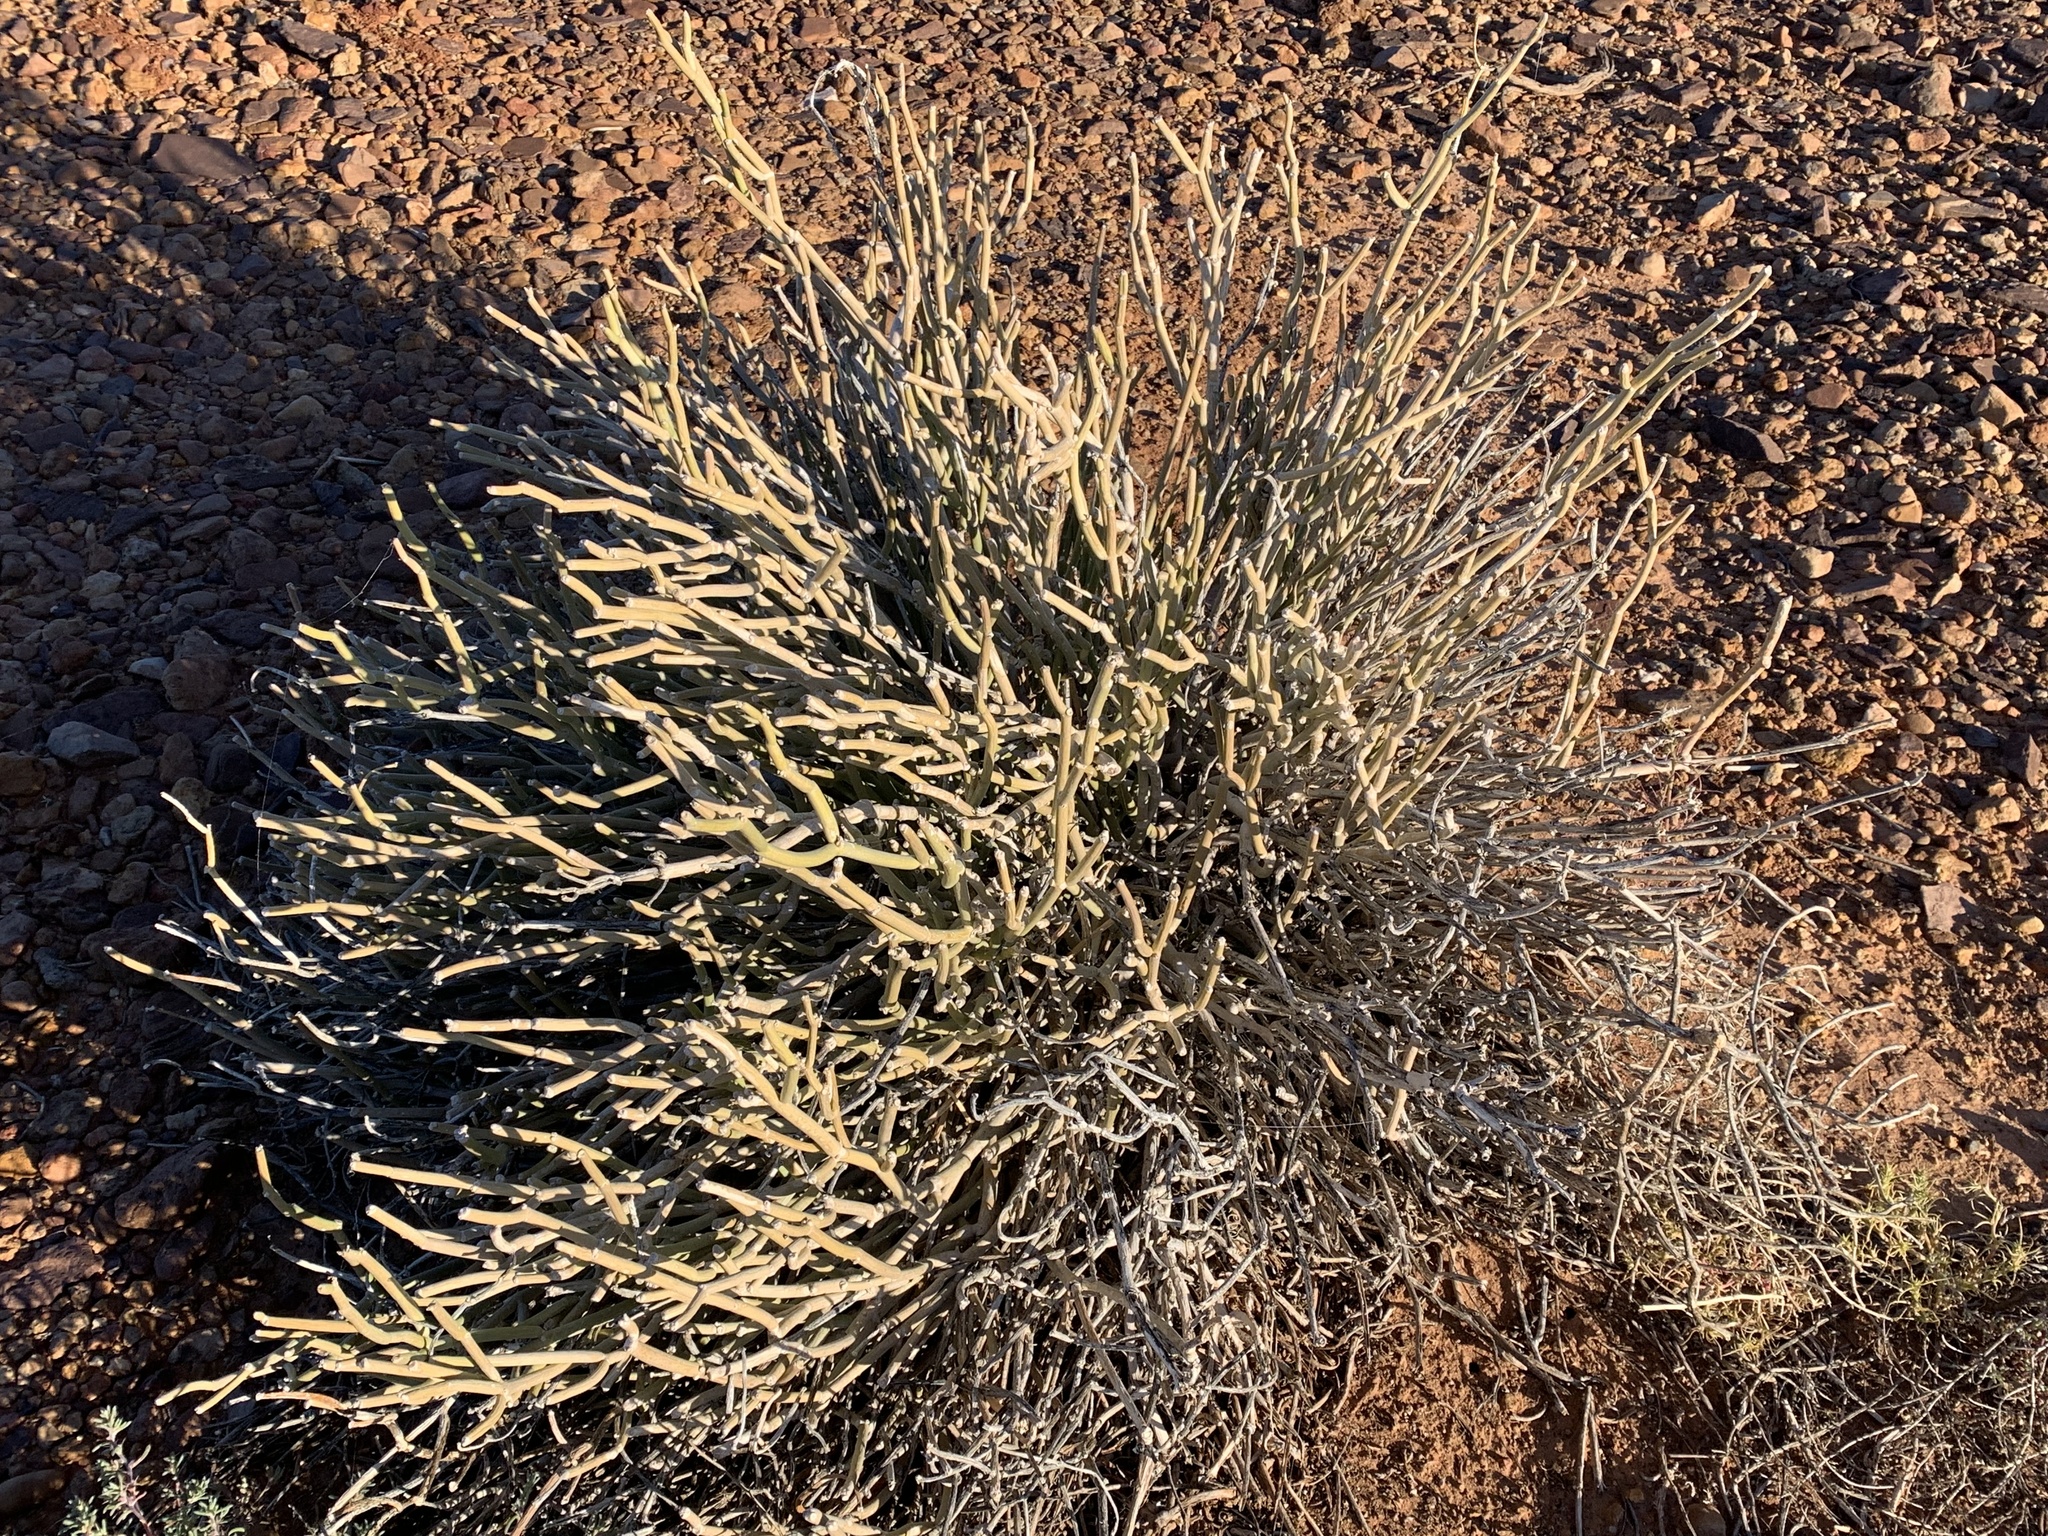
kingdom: Plantae
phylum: Tracheophyta
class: Magnoliopsida
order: Gentianales
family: Apocynaceae
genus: Cynanchum
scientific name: Cynanchum viminale
